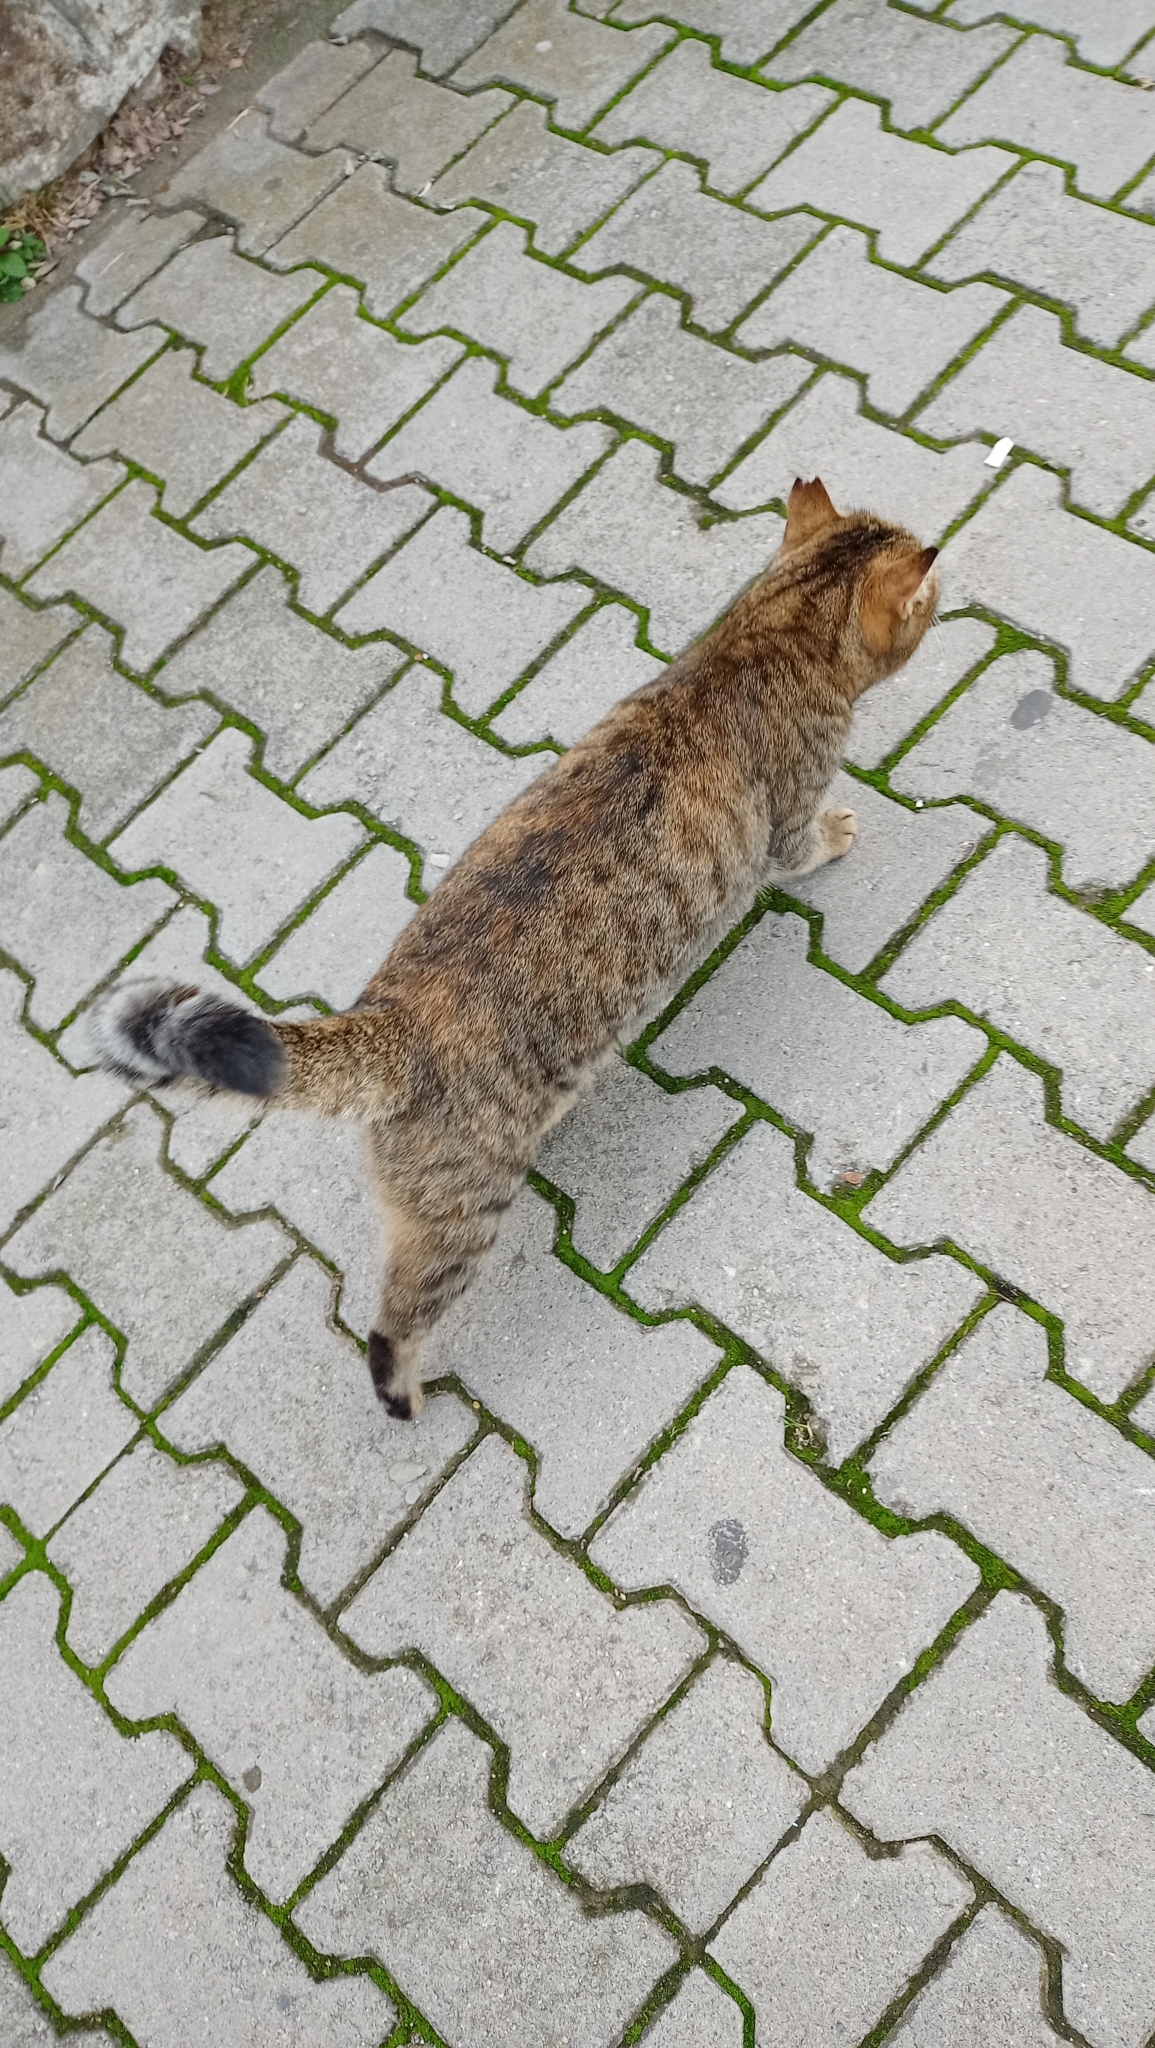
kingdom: Animalia
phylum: Chordata
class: Mammalia
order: Carnivora
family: Felidae
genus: Felis
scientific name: Felis catus
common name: Domestic cat
